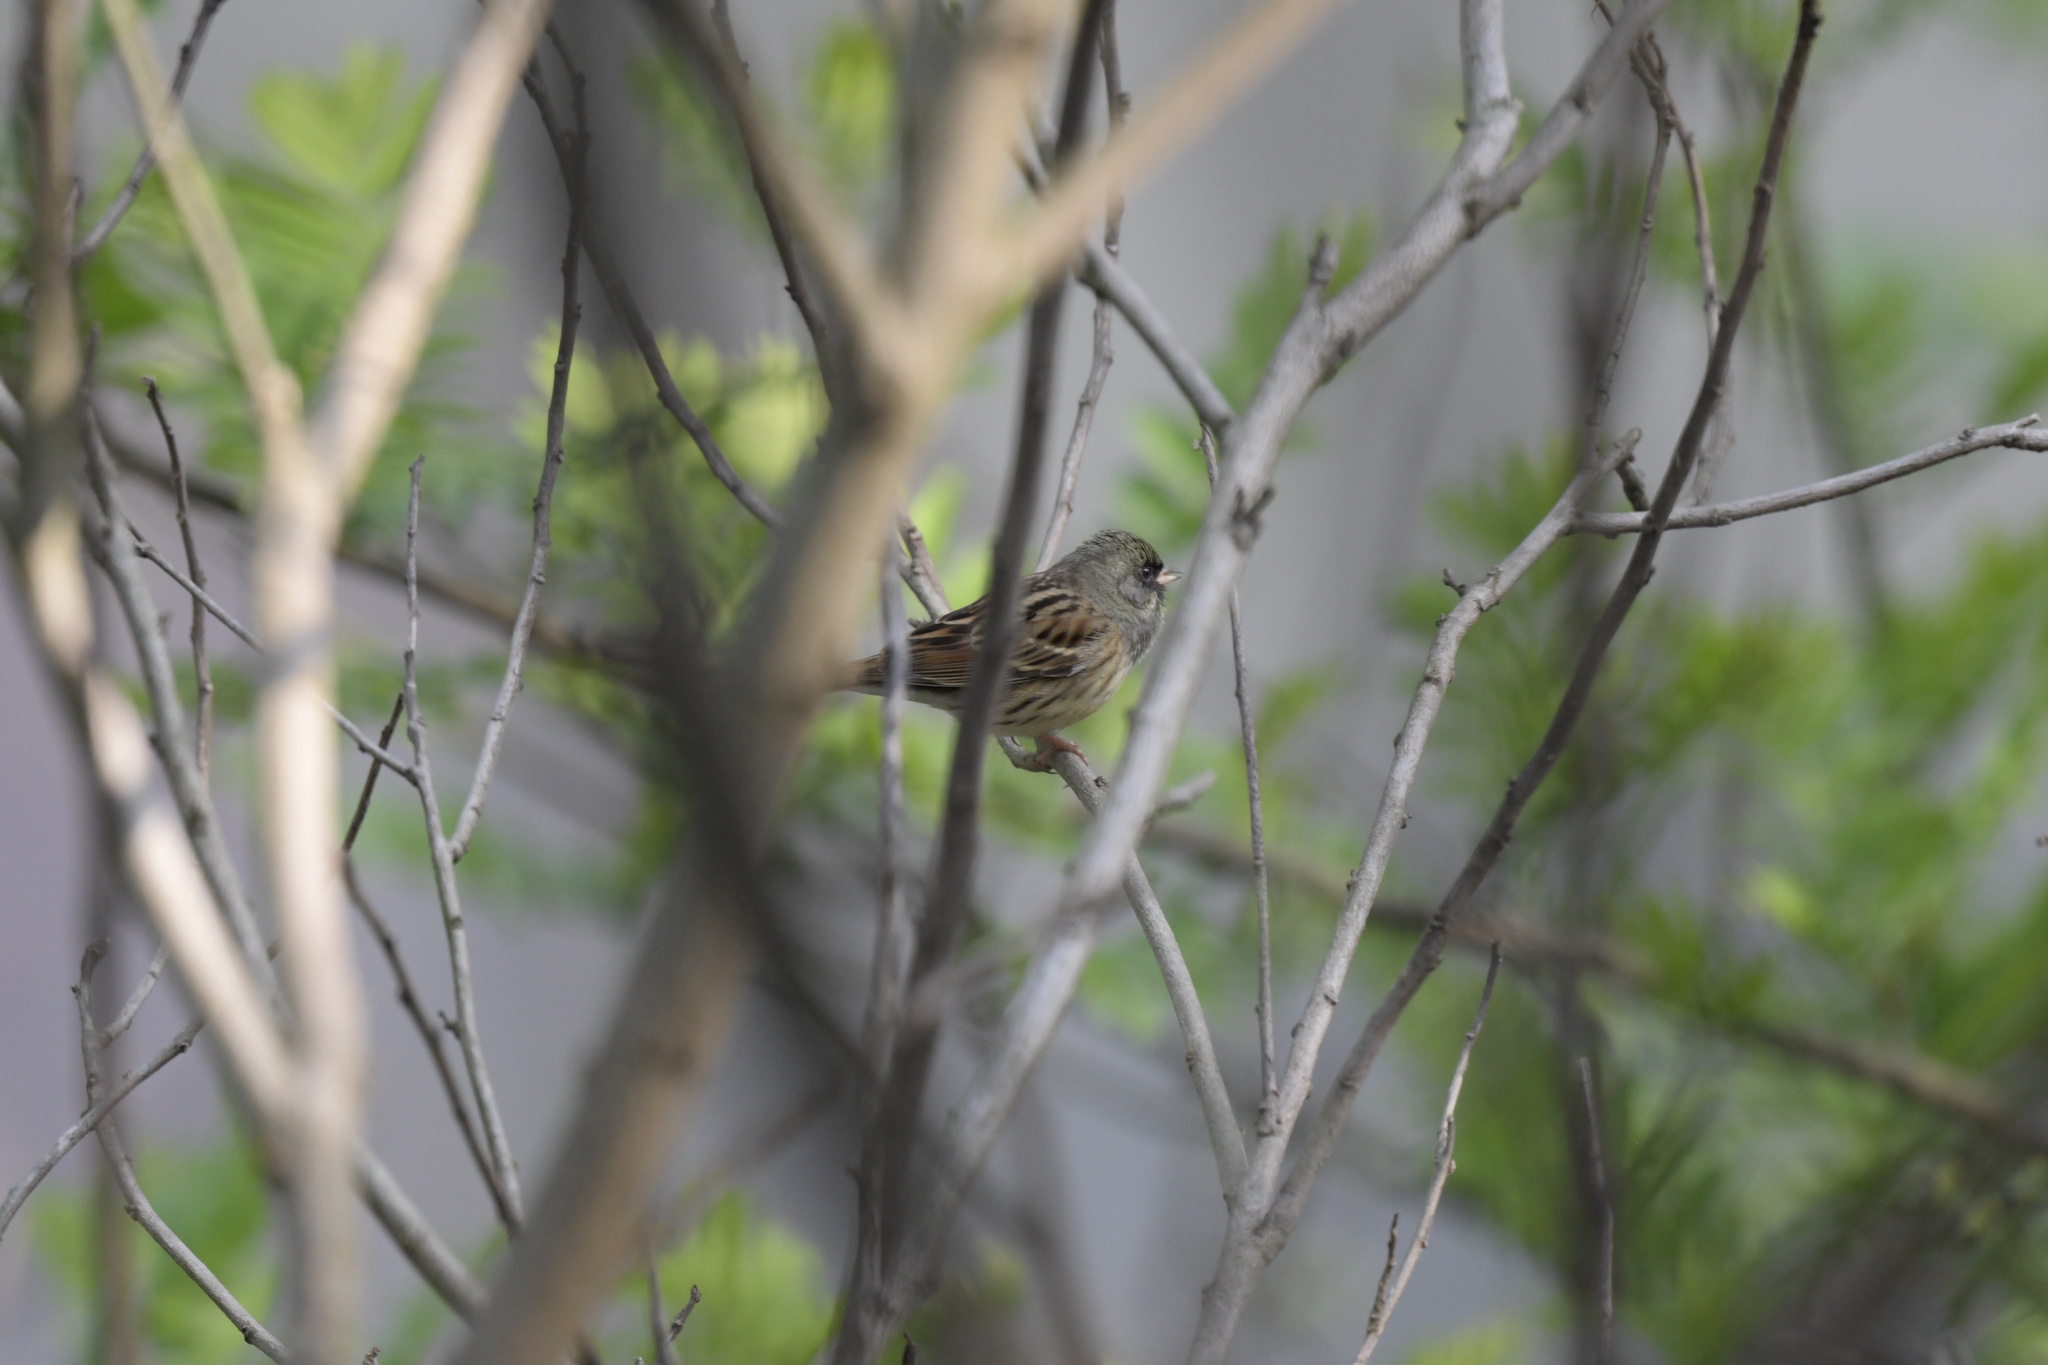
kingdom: Animalia
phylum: Chordata
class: Aves
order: Passeriformes
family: Emberizidae
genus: Emberiza
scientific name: Emberiza spodocephala
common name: Black-faced bunting
